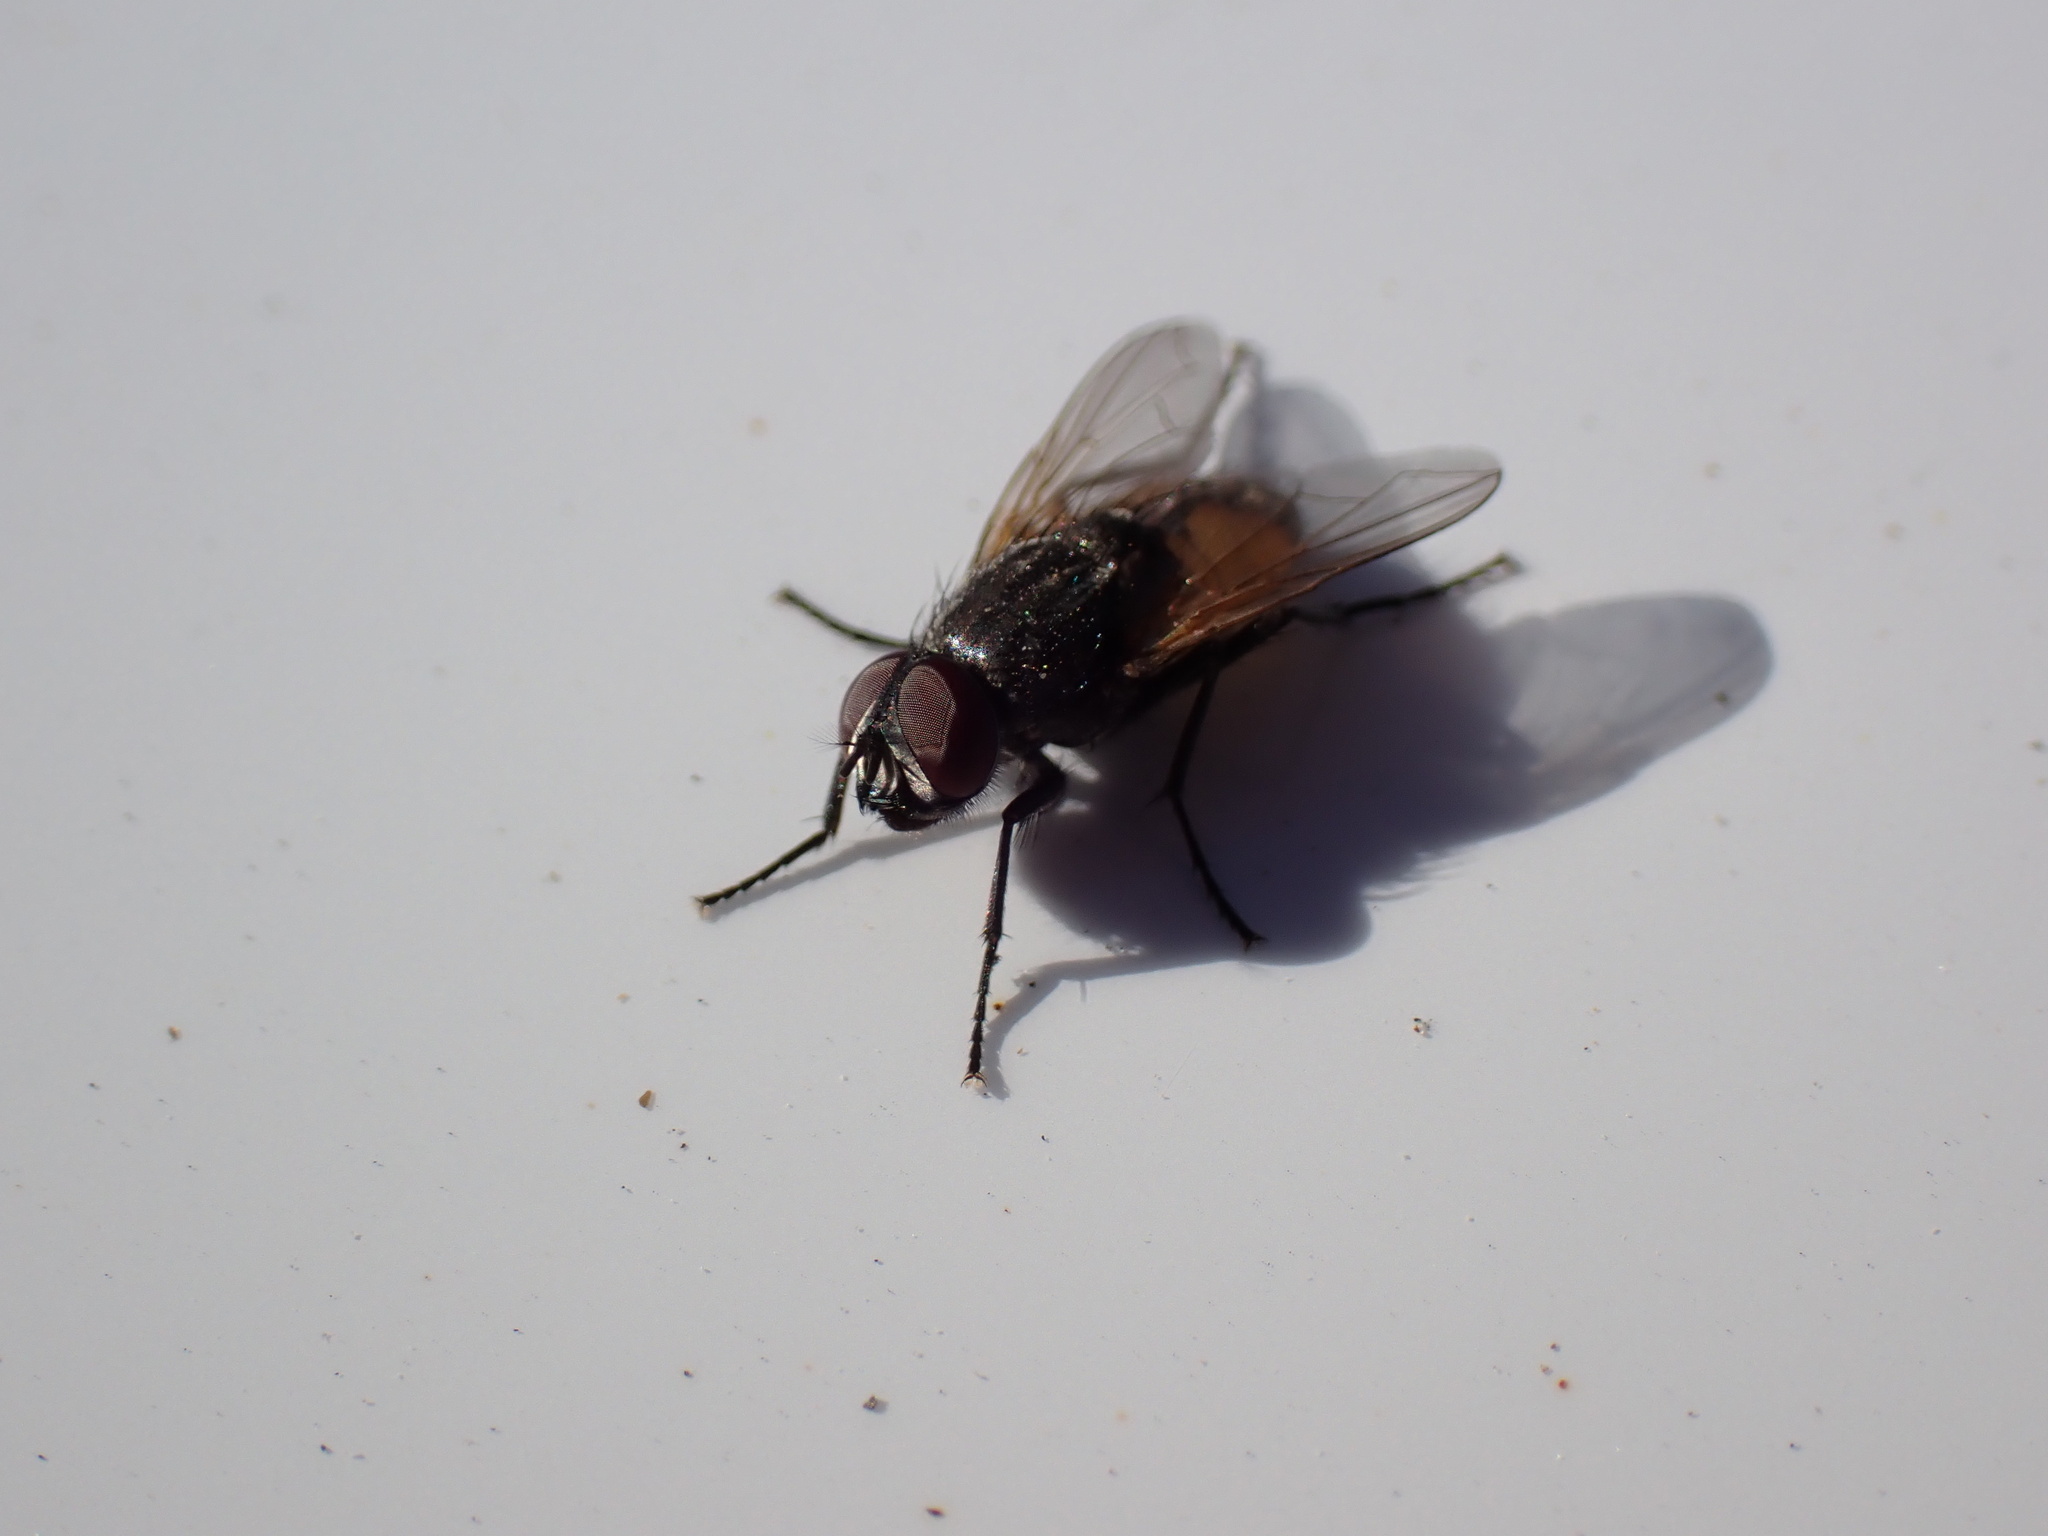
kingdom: Animalia
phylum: Arthropoda
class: Insecta
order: Diptera
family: Muscidae
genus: Musca
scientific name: Musca domestica
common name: House fly
